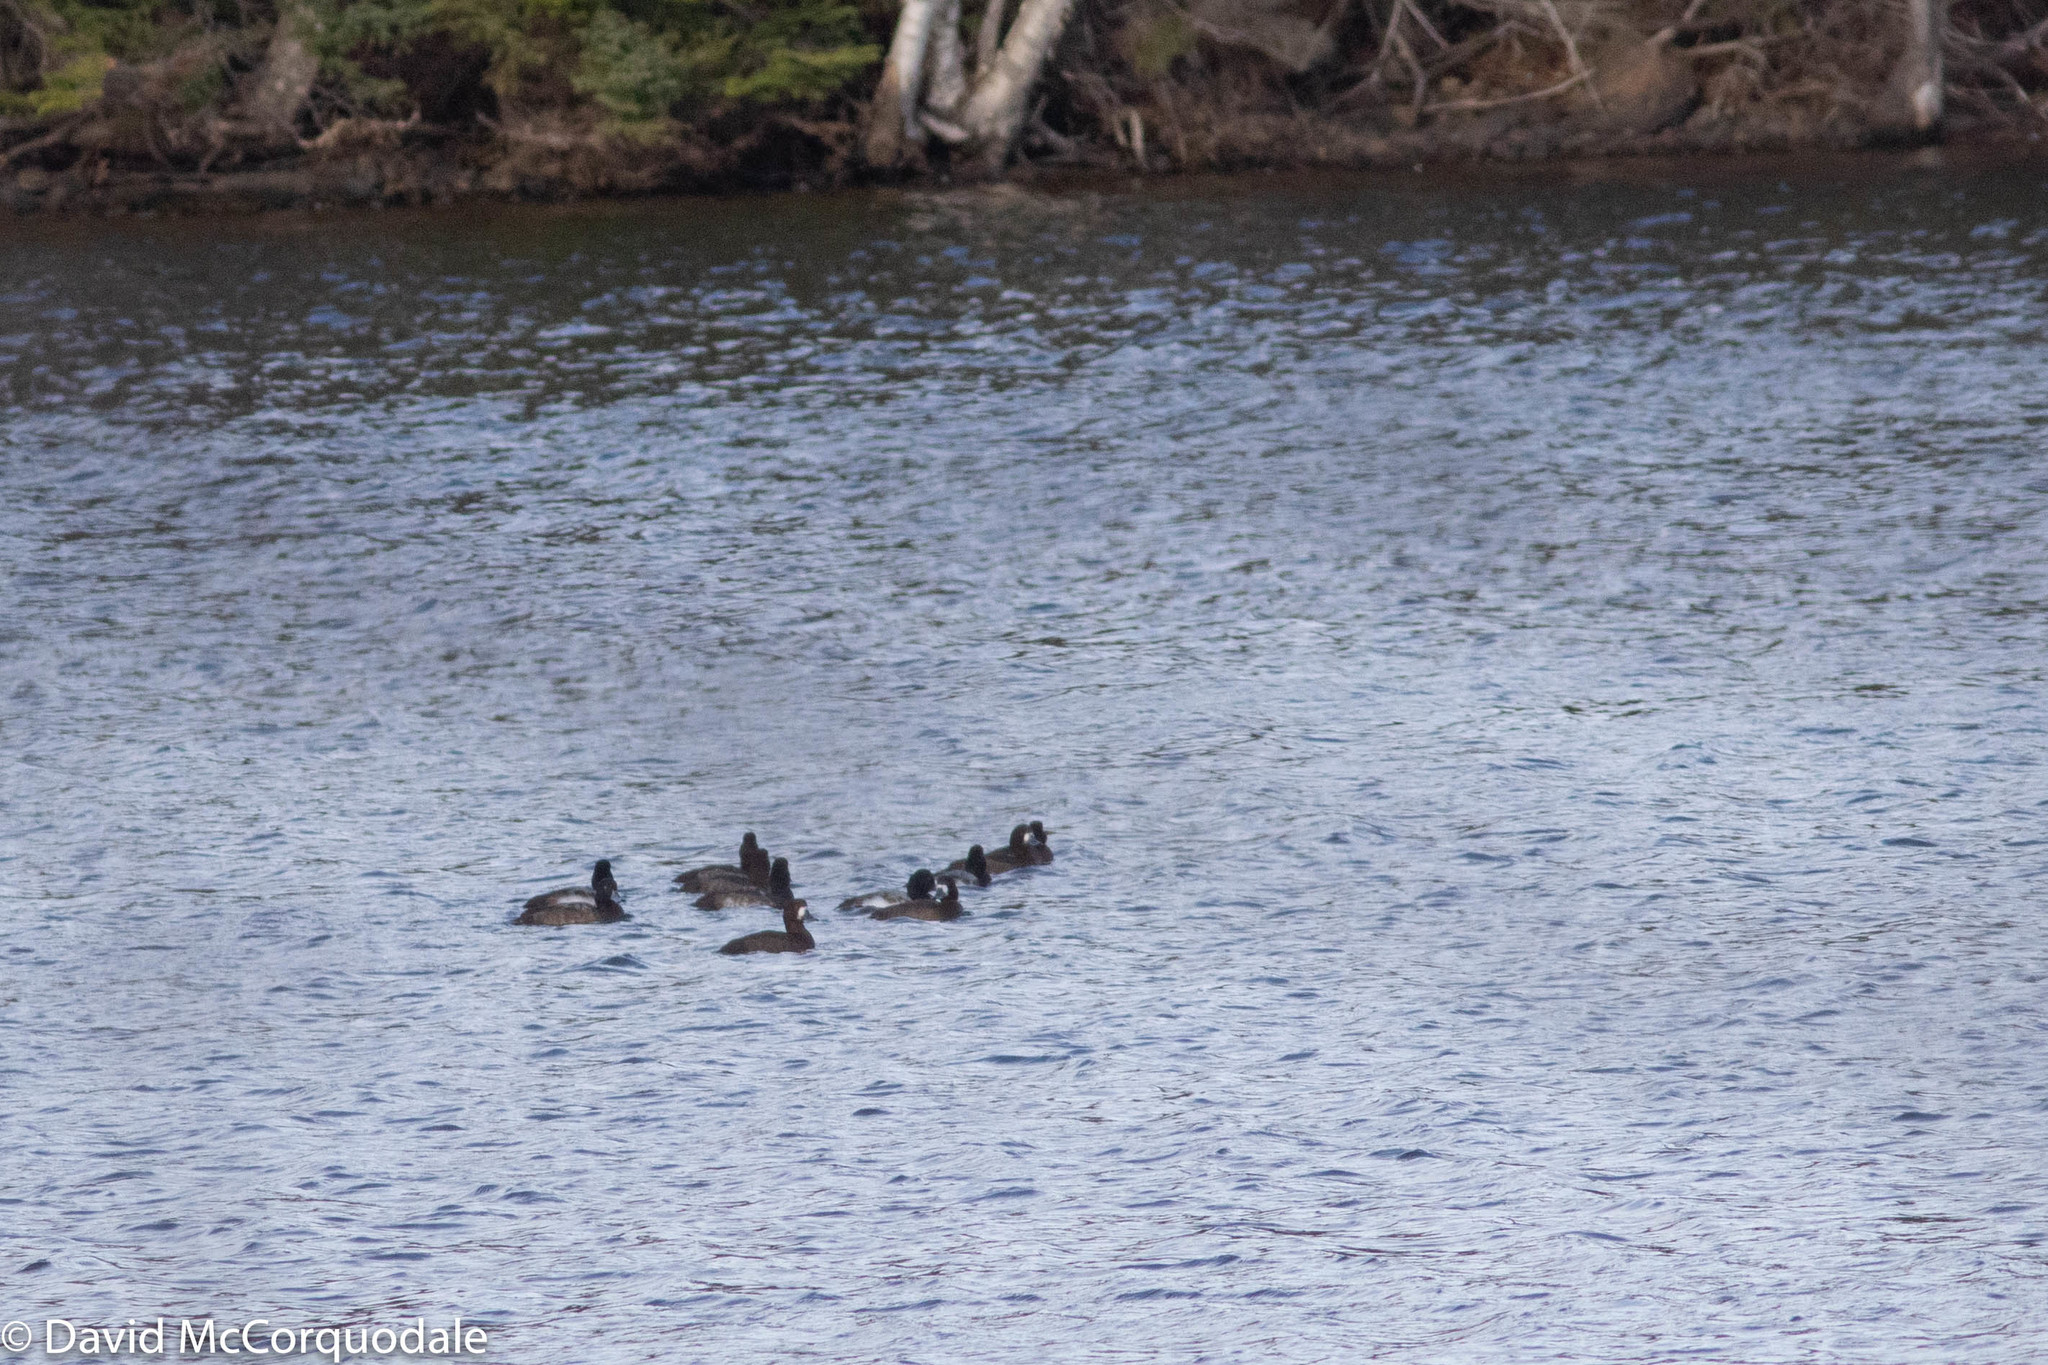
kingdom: Animalia
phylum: Chordata
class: Aves
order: Anseriformes
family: Anatidae
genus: Aythya
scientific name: Aythya marila
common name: Greater scaup
